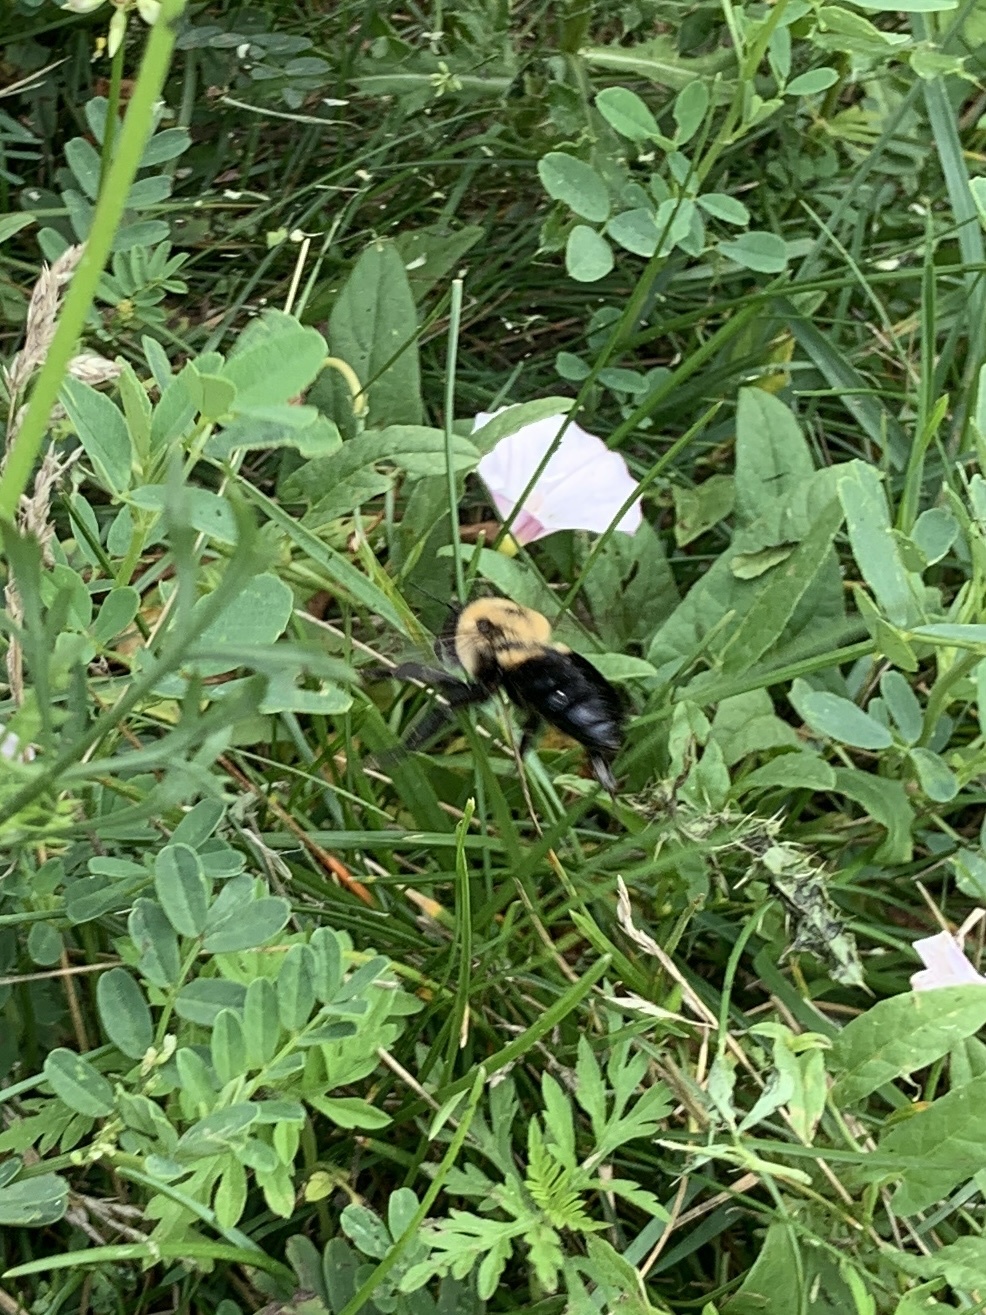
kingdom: Animalia
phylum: Arthropoda
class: Insecta
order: Hymenoptera
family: Apidae
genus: Bombus
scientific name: Bombus griseocollis
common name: Brown-belted bumble bee
